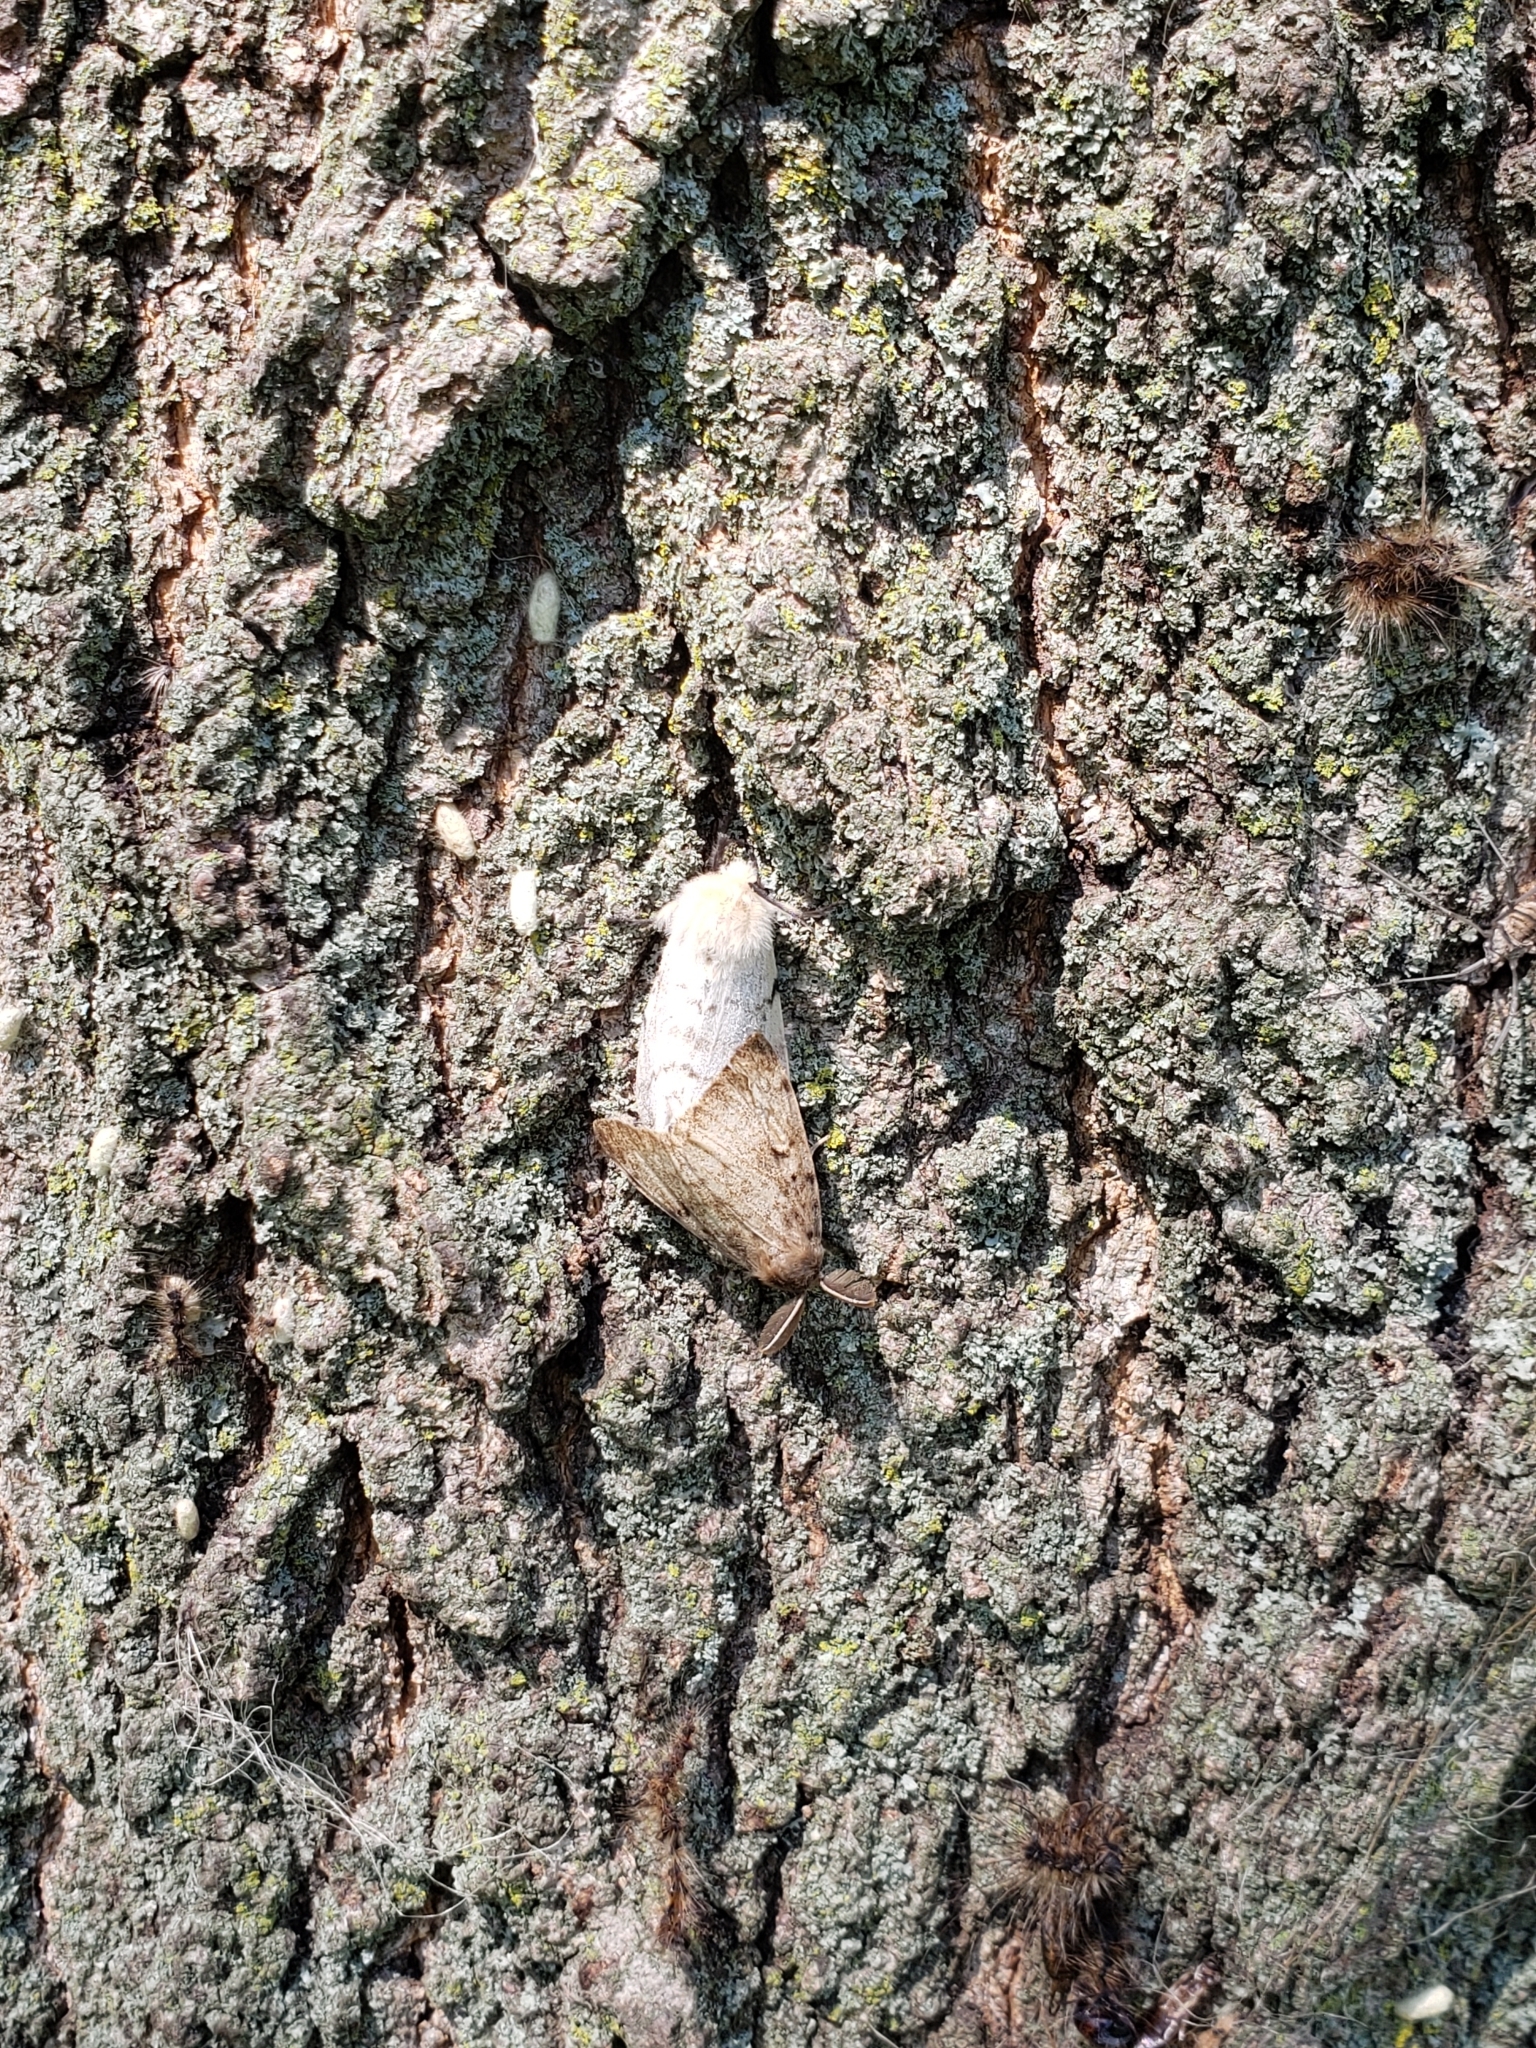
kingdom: Animalia
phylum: Arthropoda
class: Insecta
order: Lepidoptera
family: Erebidae
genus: Lymantria
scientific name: Lymantria dispar
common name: Gypsy moth
